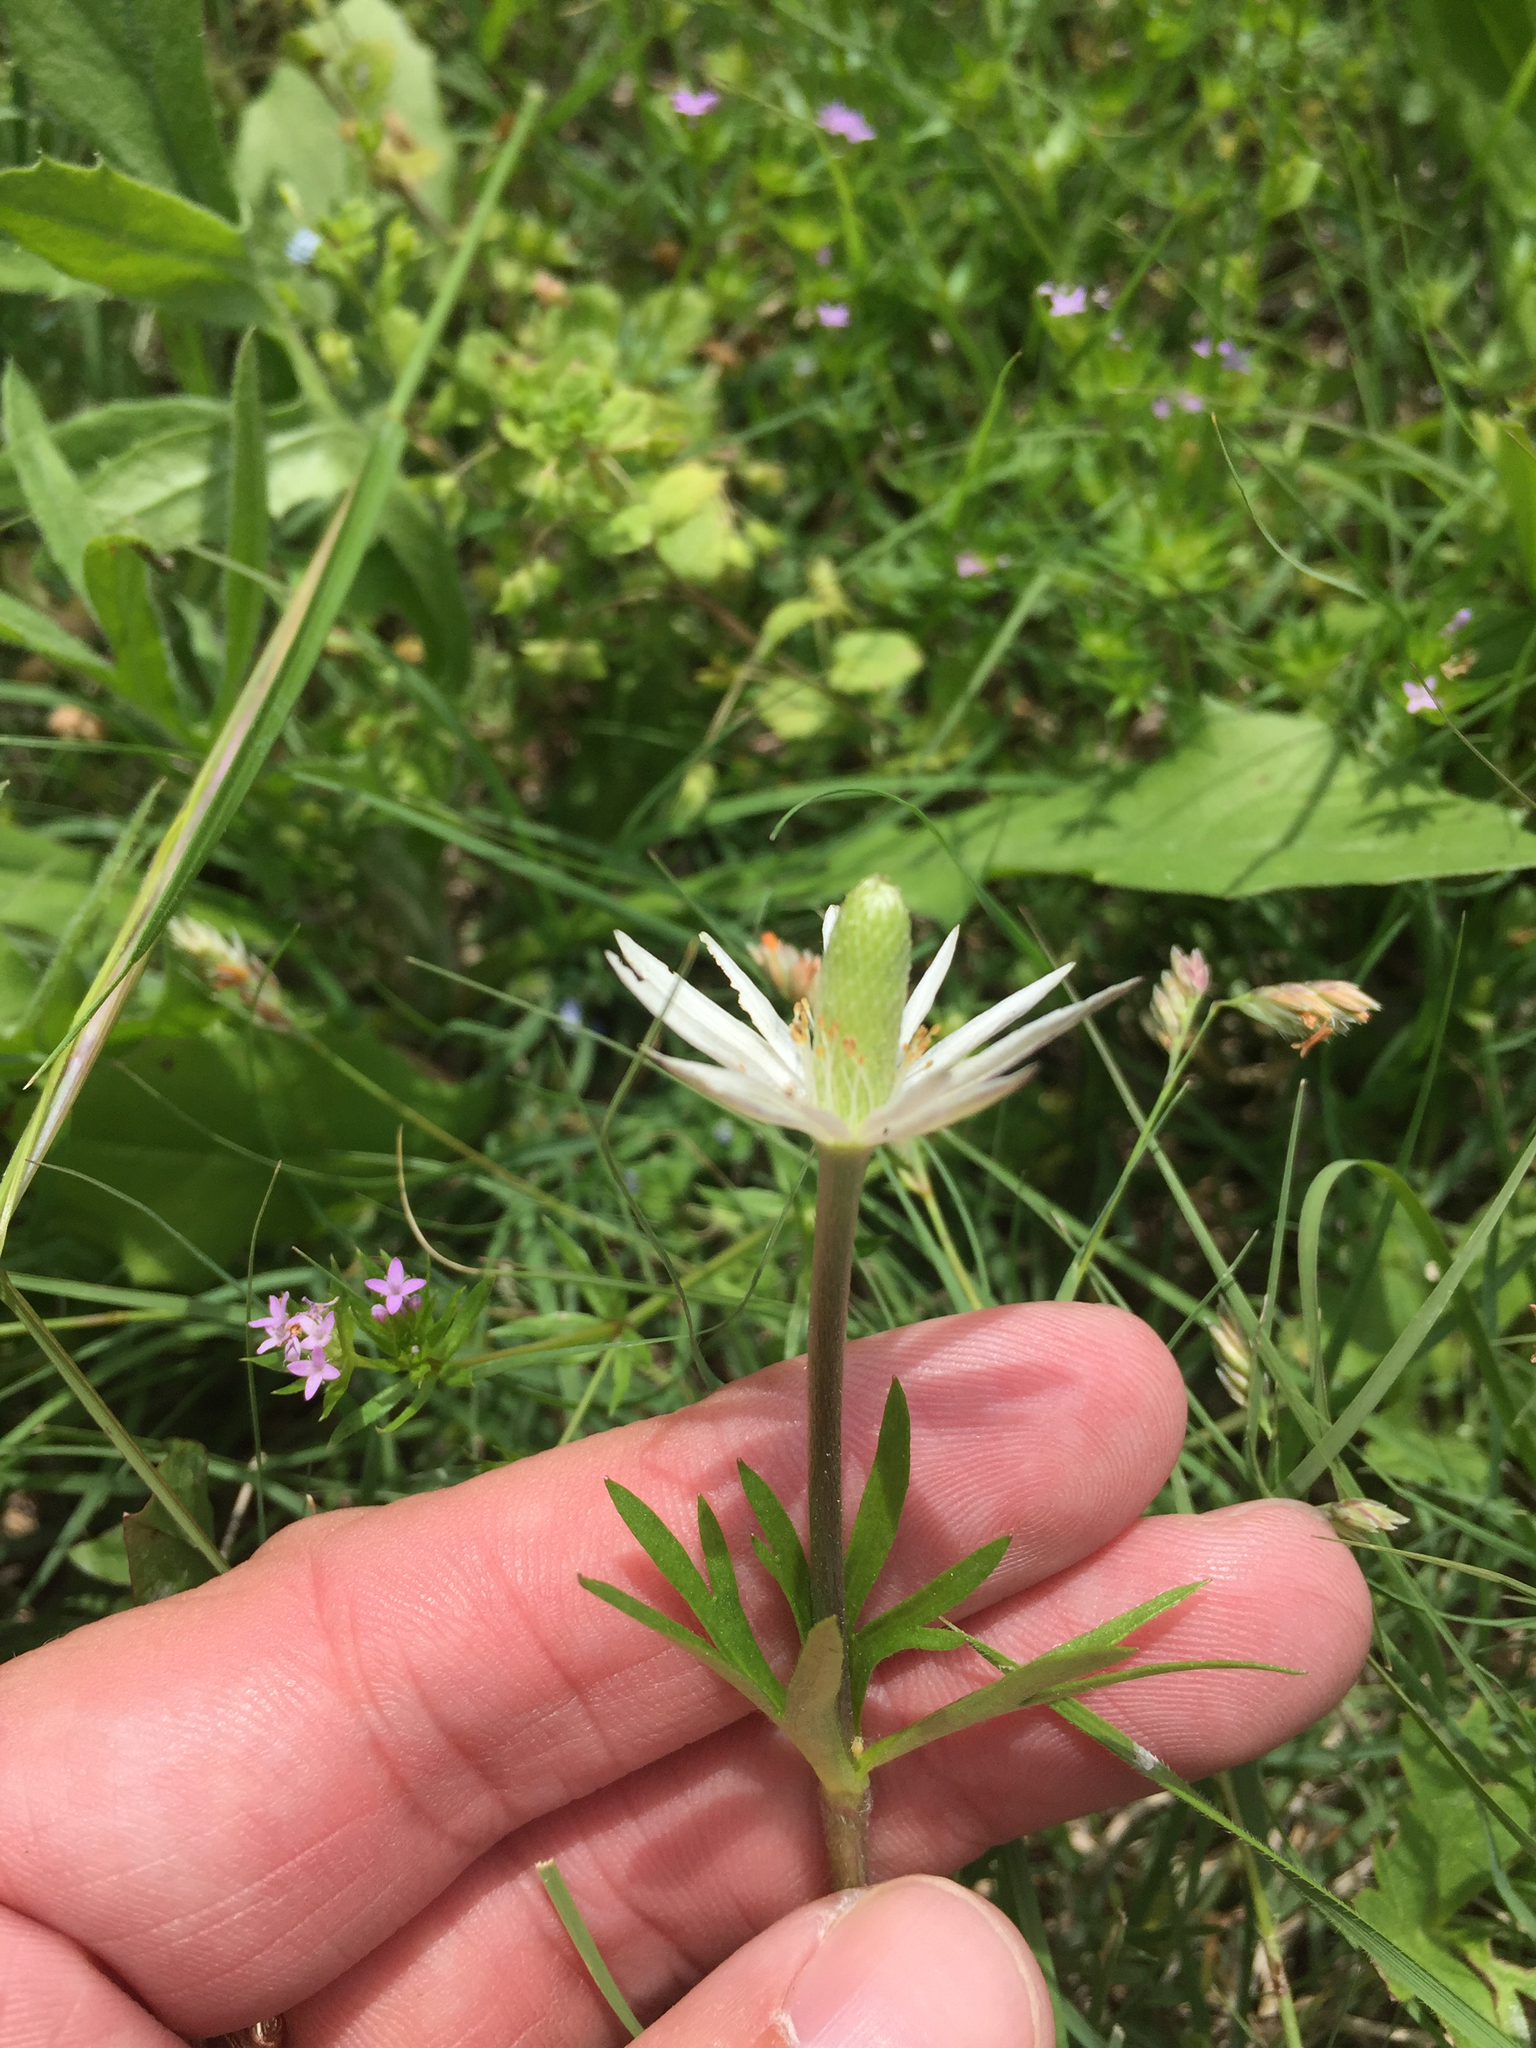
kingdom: Plantae
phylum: Tracheophyta
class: Magnoliopsida
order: Ranunculales
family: Ranunculaceae
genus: Anemone
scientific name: Anemone berlandieri
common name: Ten-petal anemone
